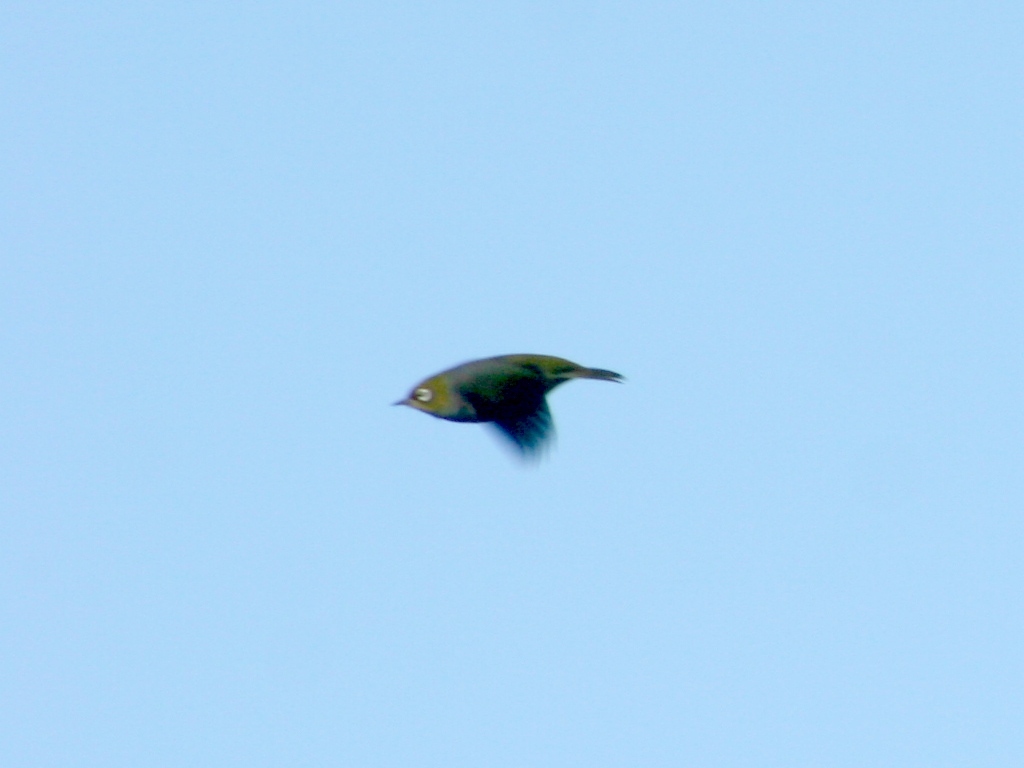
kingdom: Animalia
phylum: Chordata
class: Aves
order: Passeriformes
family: Zosteropidae
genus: Zosterops
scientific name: Zosterops lateralis
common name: Silvereye
